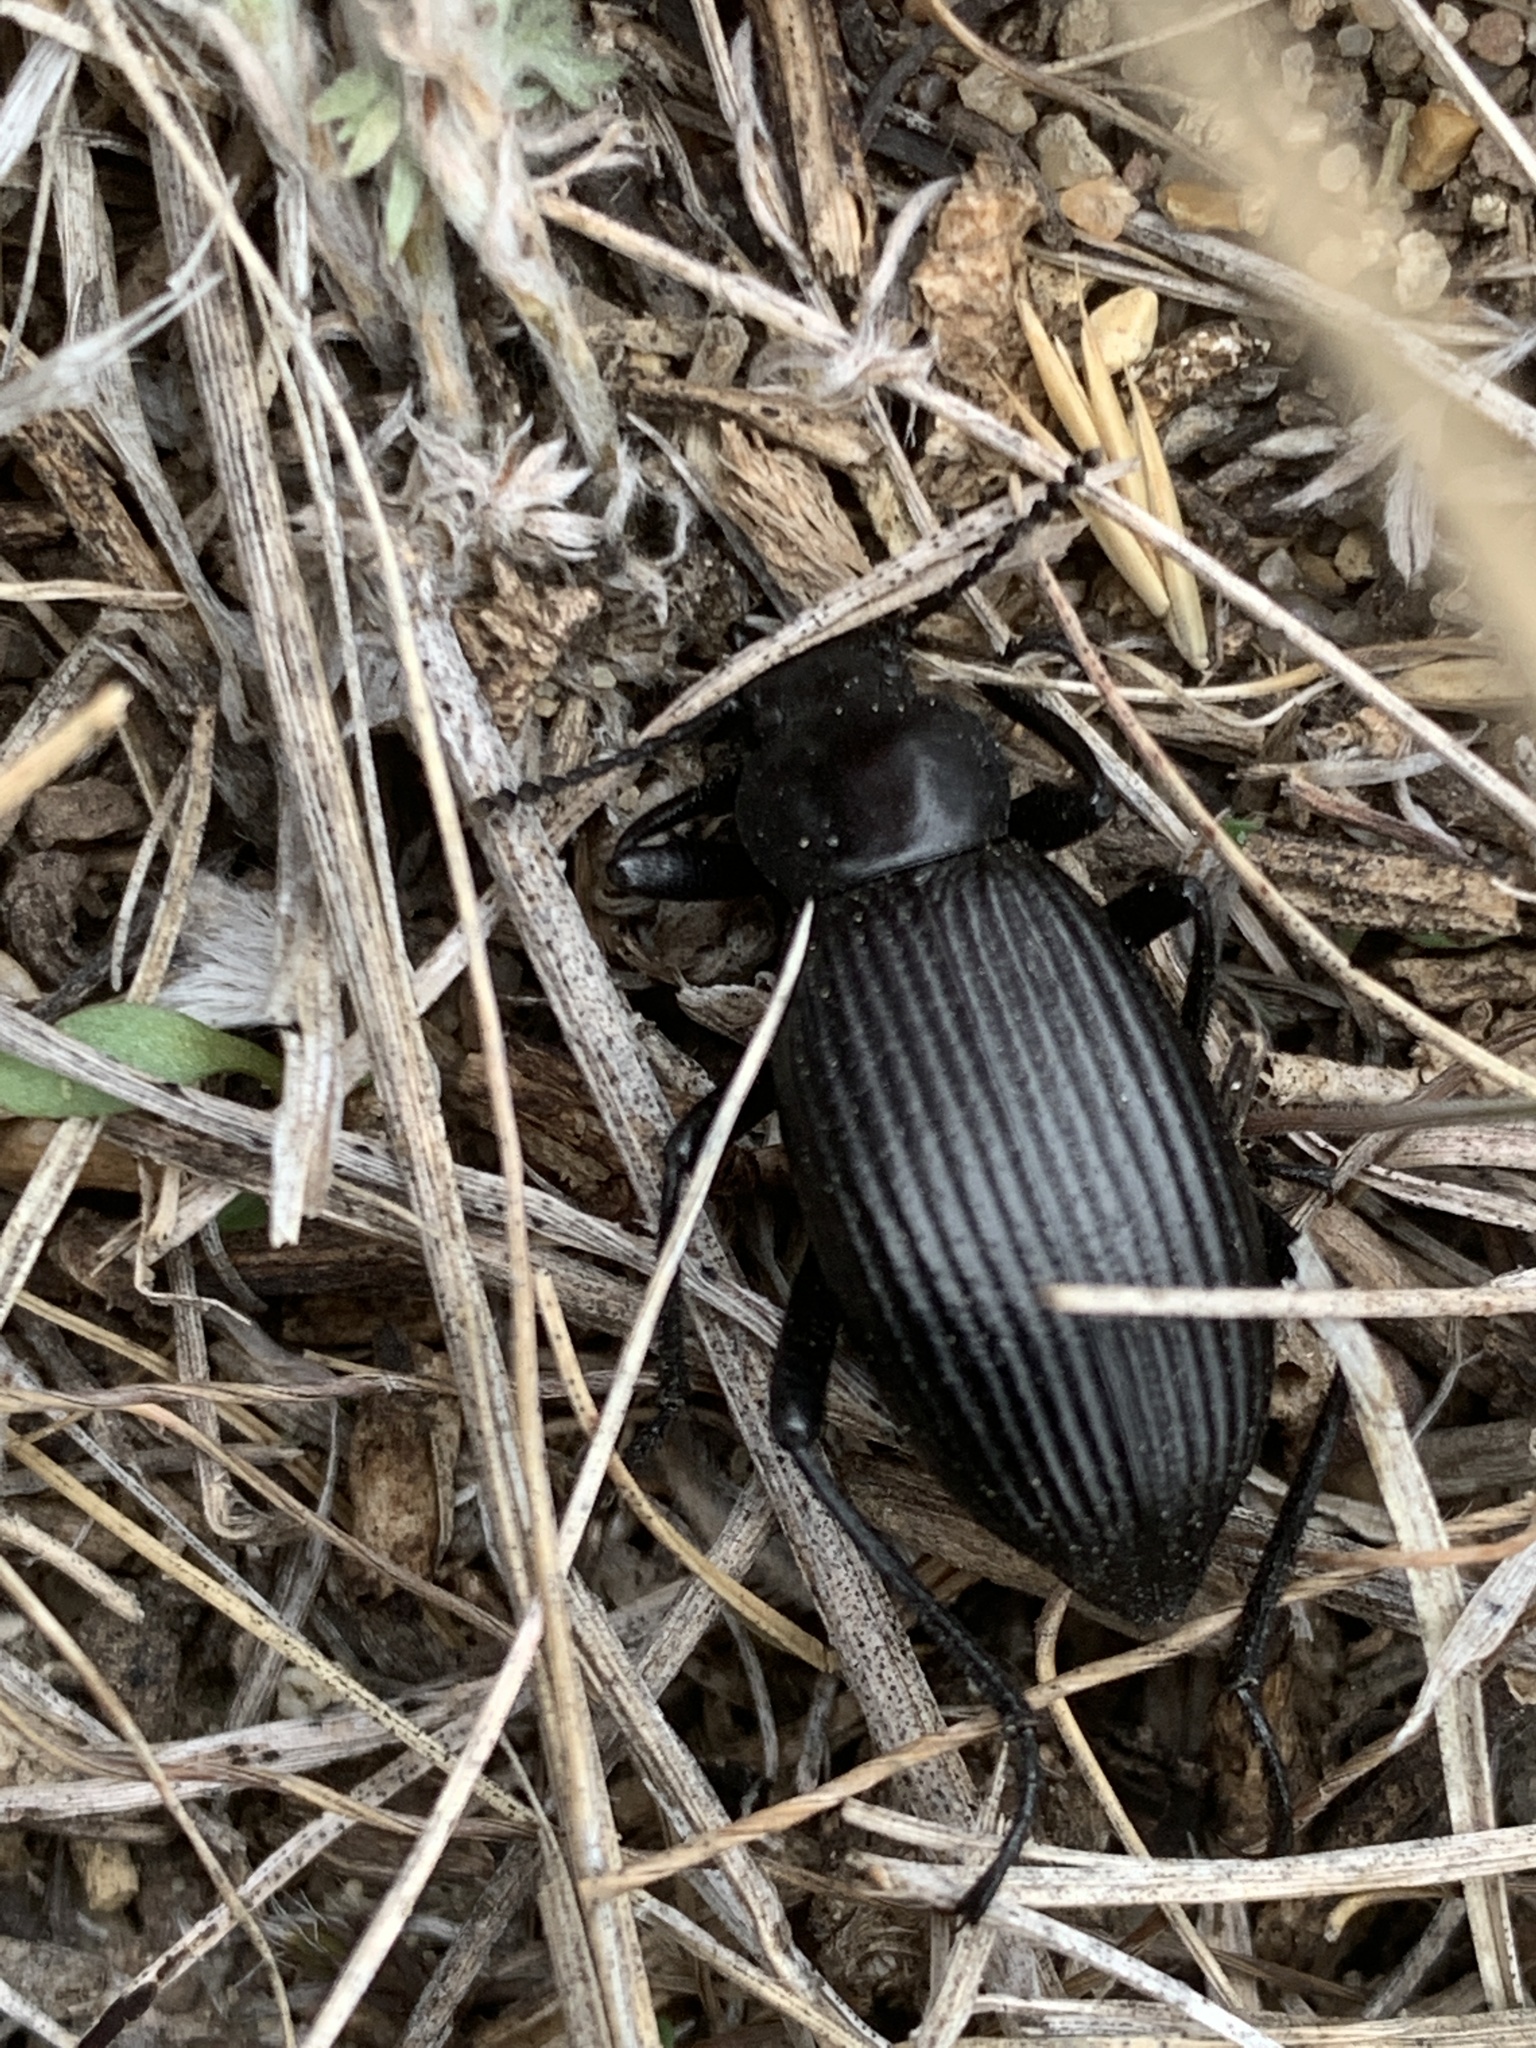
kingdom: Animalia
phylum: Arthropoda
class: Insecta
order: Coleoptera
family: Tenebrionidae
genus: Eleodes
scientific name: Eleodes hispilabris
